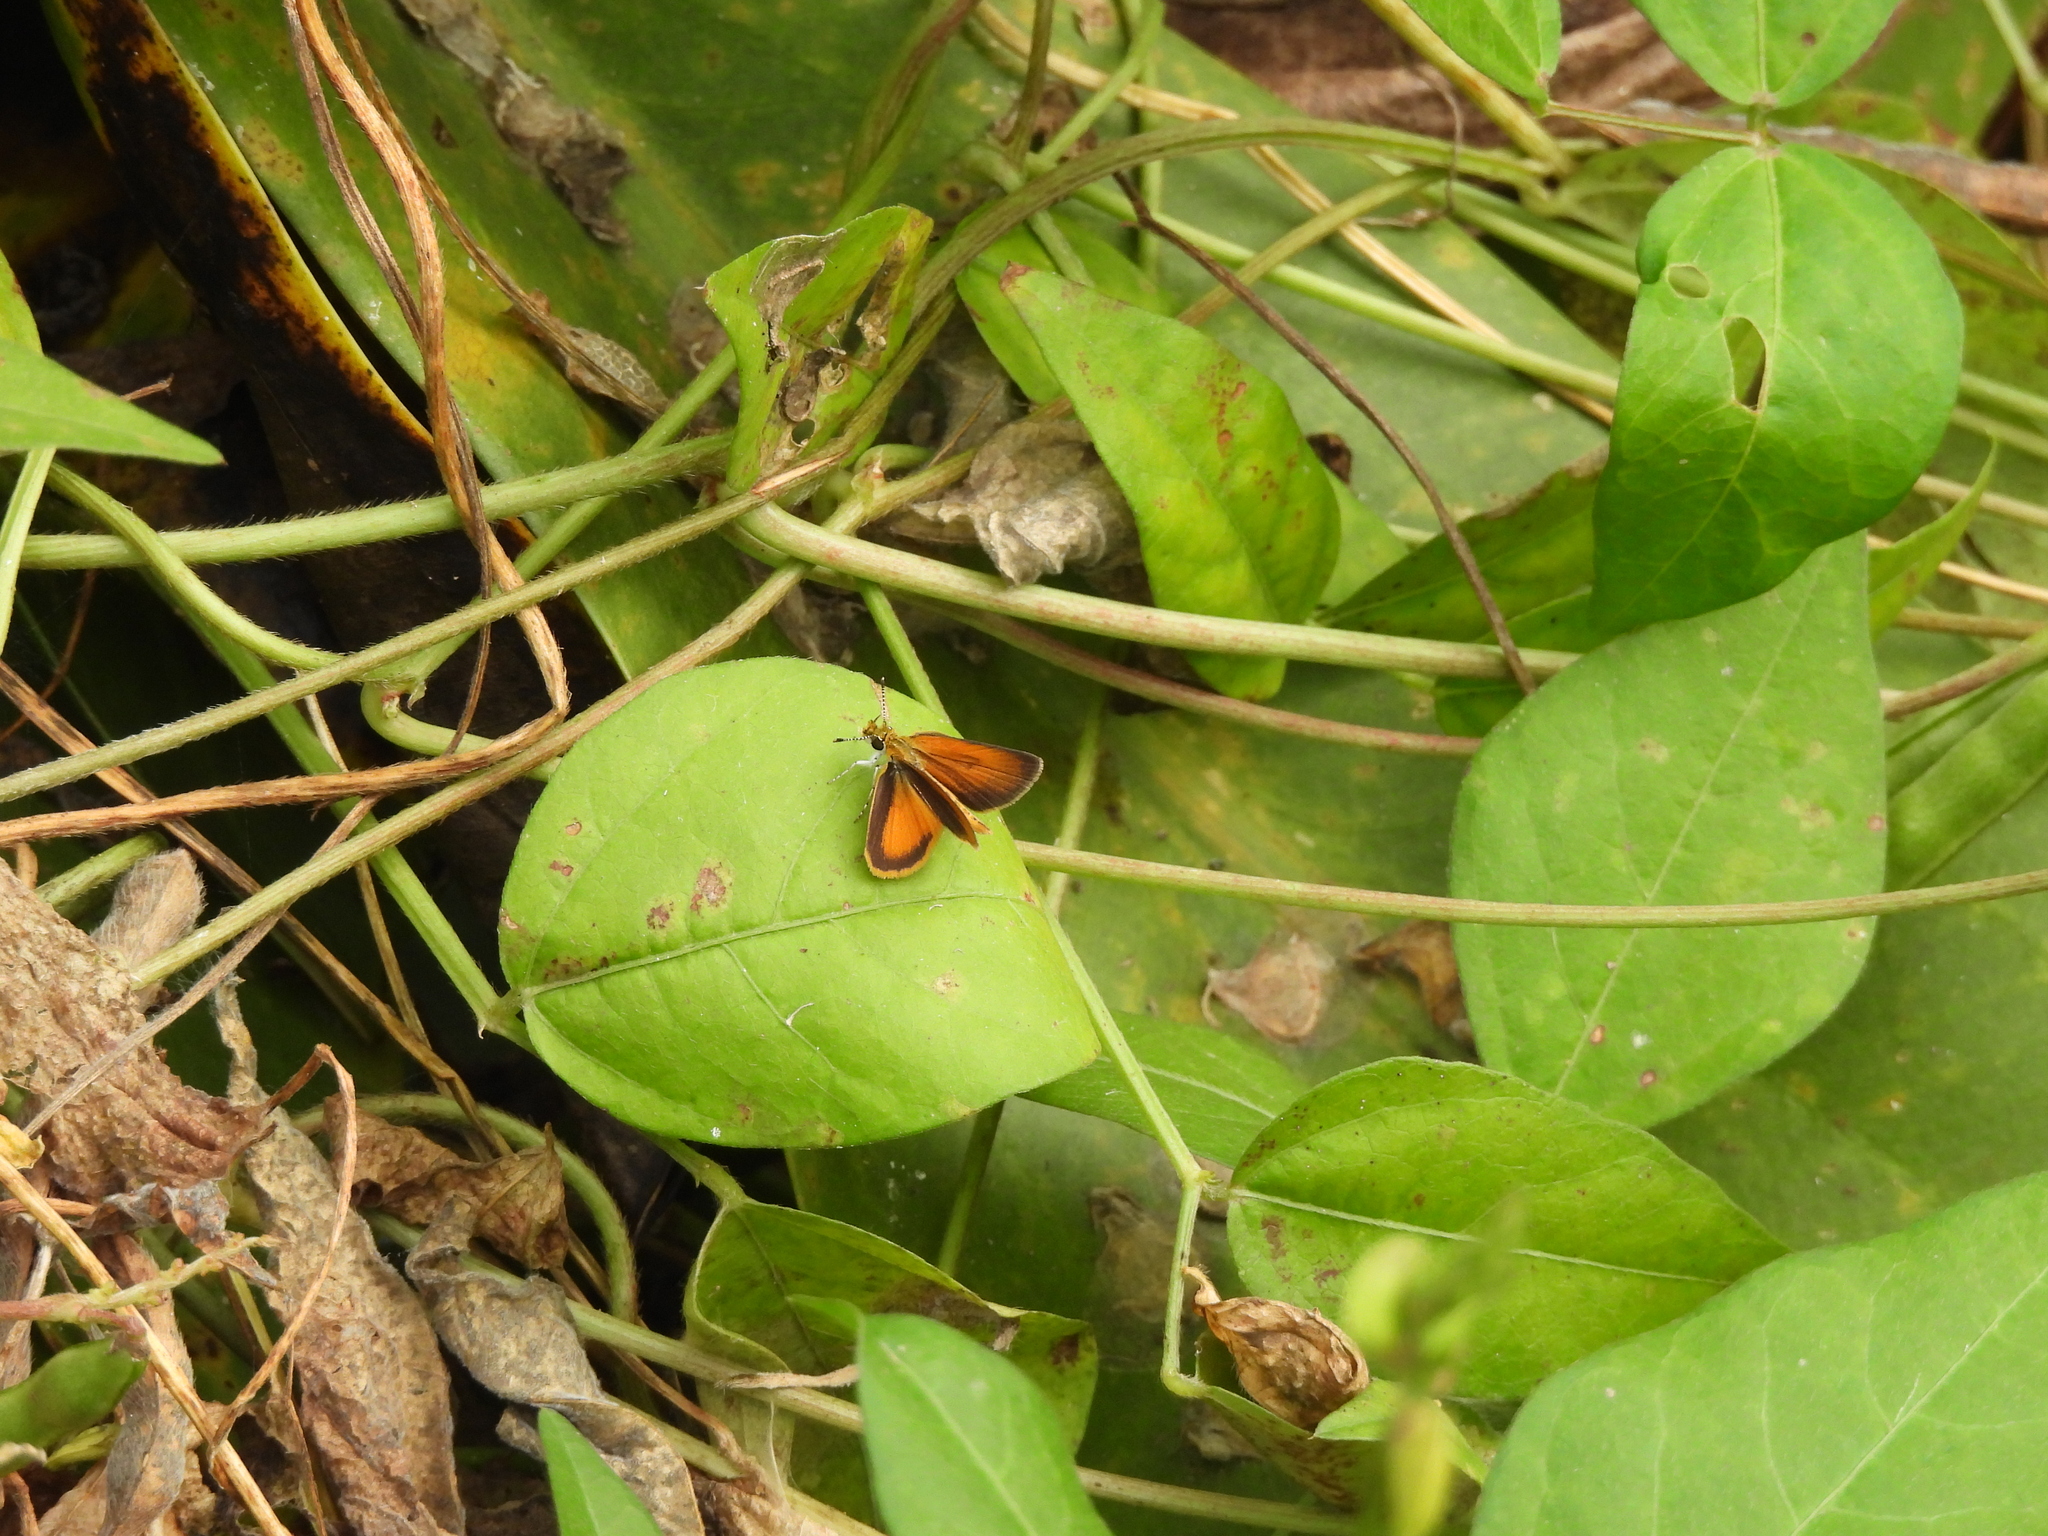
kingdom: Animalia
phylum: Arthropoda
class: Insecta
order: Lepidoptera
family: Hesperiidae
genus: Ancyloxypha
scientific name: Ancyloxypha numitor
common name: Least skipper
